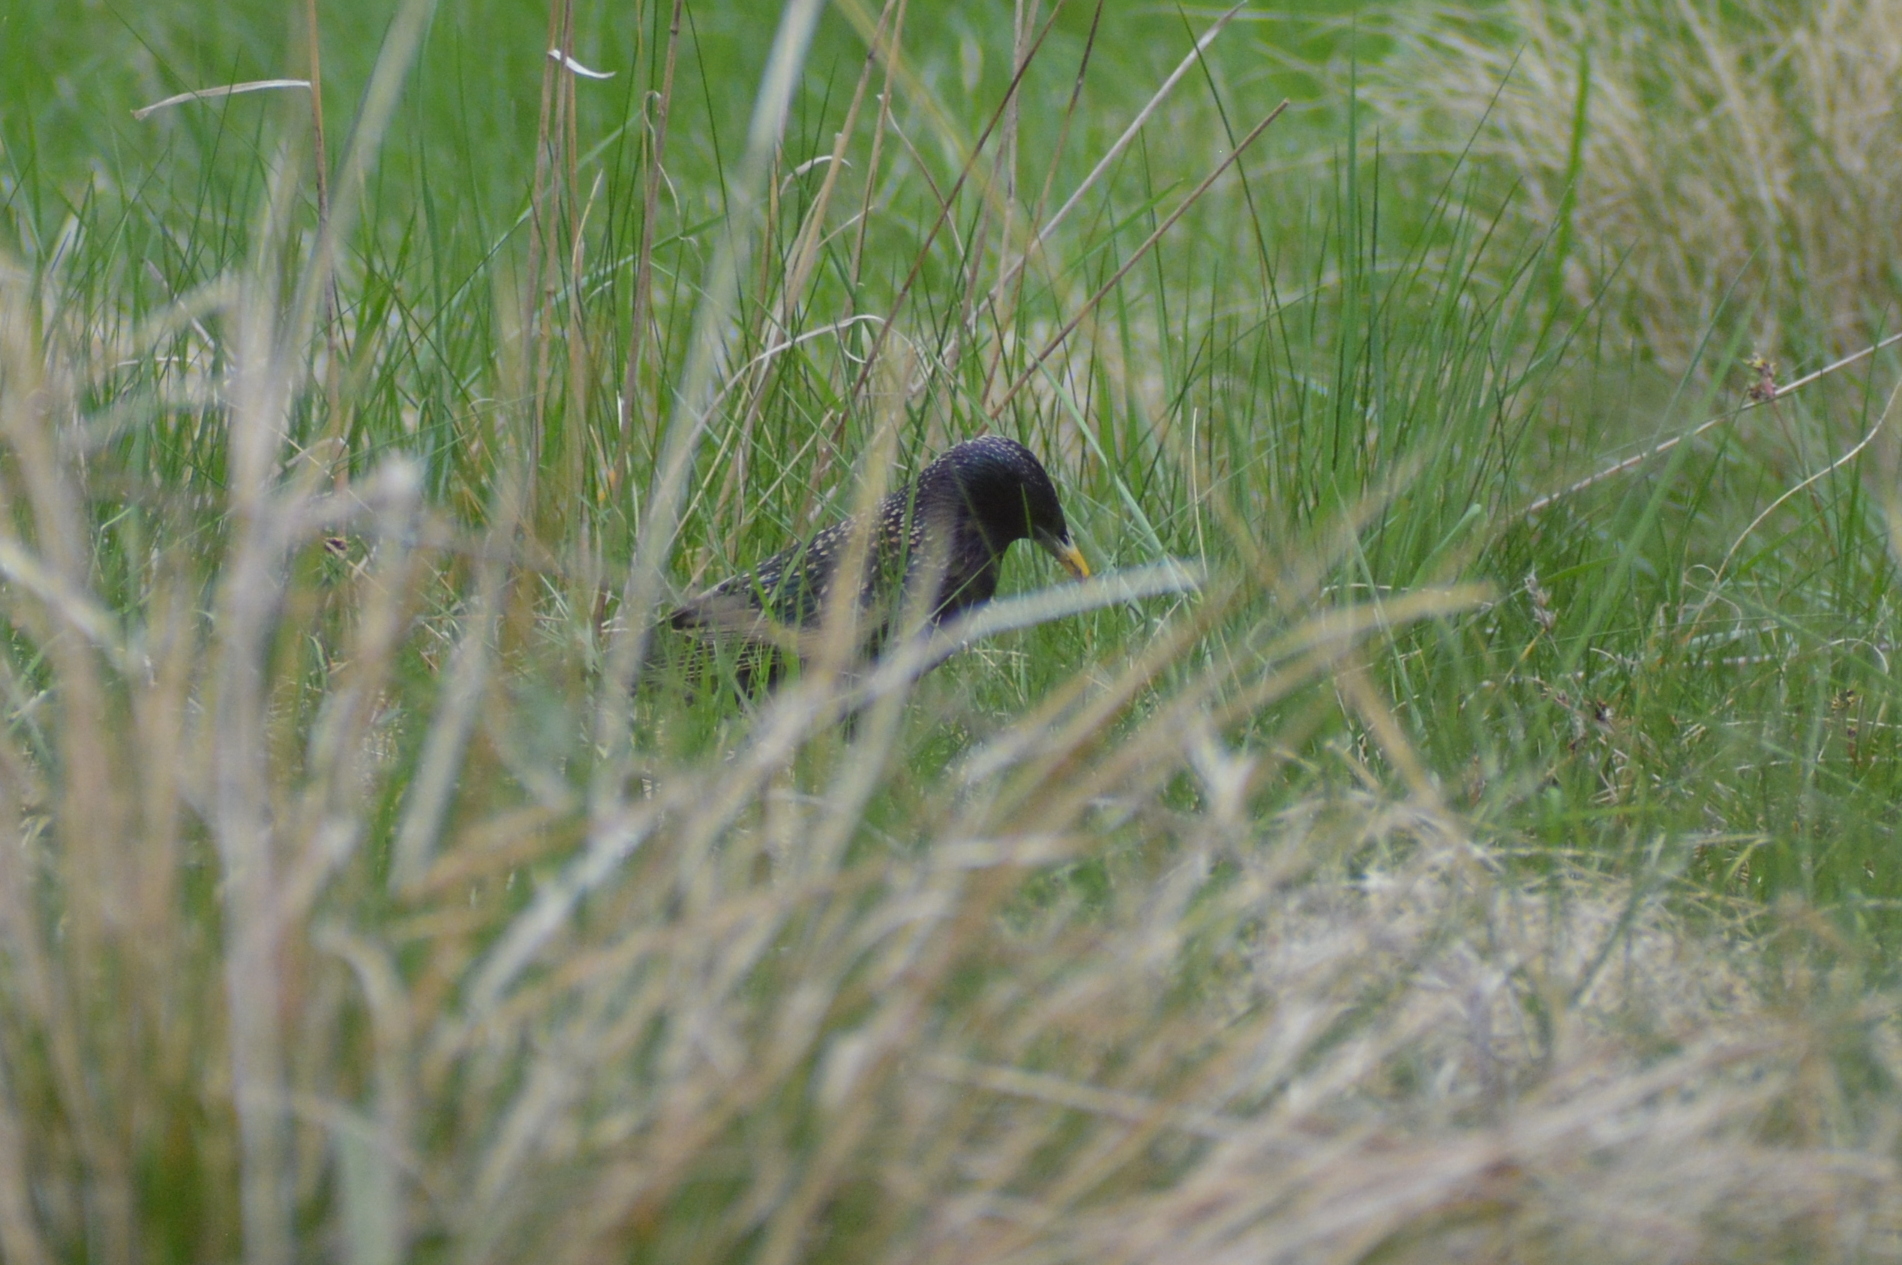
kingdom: Animalia
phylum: Chordata
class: Aves
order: Passeriformes
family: Sturnidae
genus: Sturnus
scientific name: Sturnus vulgaris
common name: Common starling
